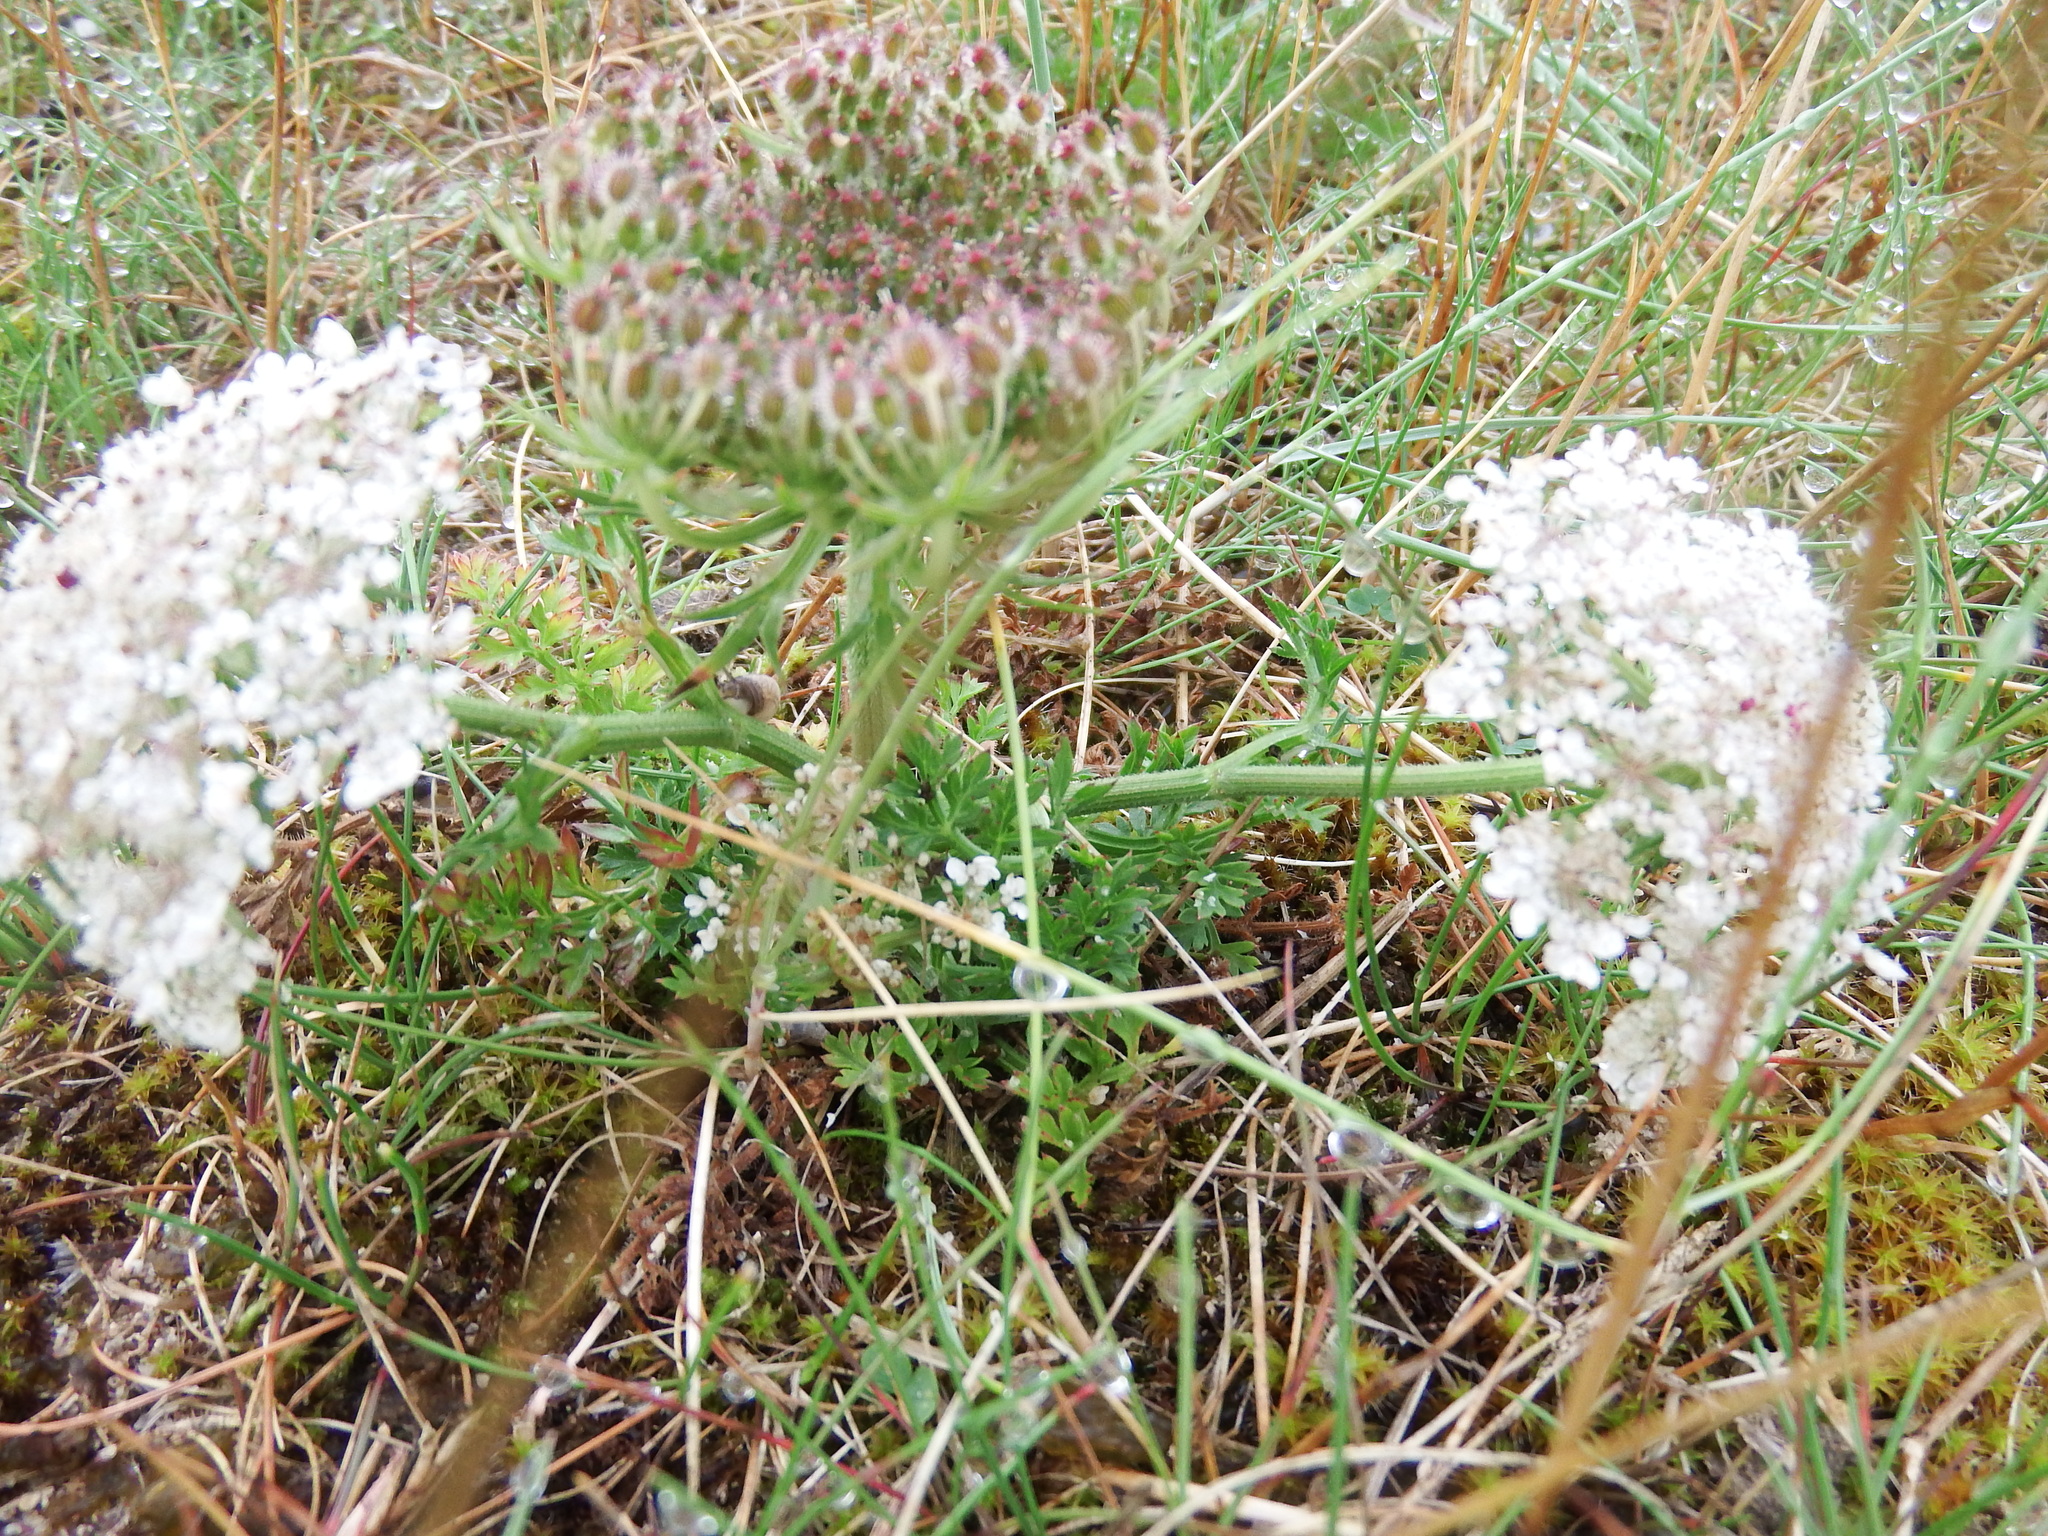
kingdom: Plantae
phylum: Tracheophyta
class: Magnoliopsida
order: Apiales
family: Apiaceae
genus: Daucus
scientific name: Daucus carota
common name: Wild carrot
